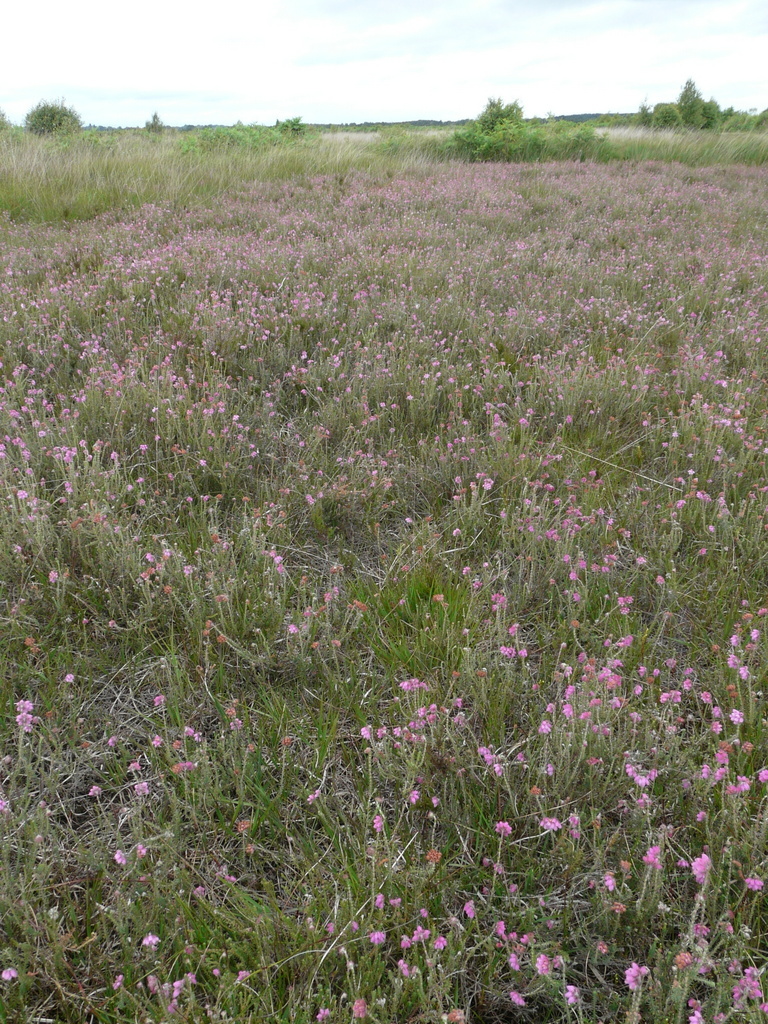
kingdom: Plantae
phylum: Tracheophyta
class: Magnoliopsida
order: Ericales
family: Ericaceae
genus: Erica
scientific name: Erica tetralix
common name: Cross-leaved heath
